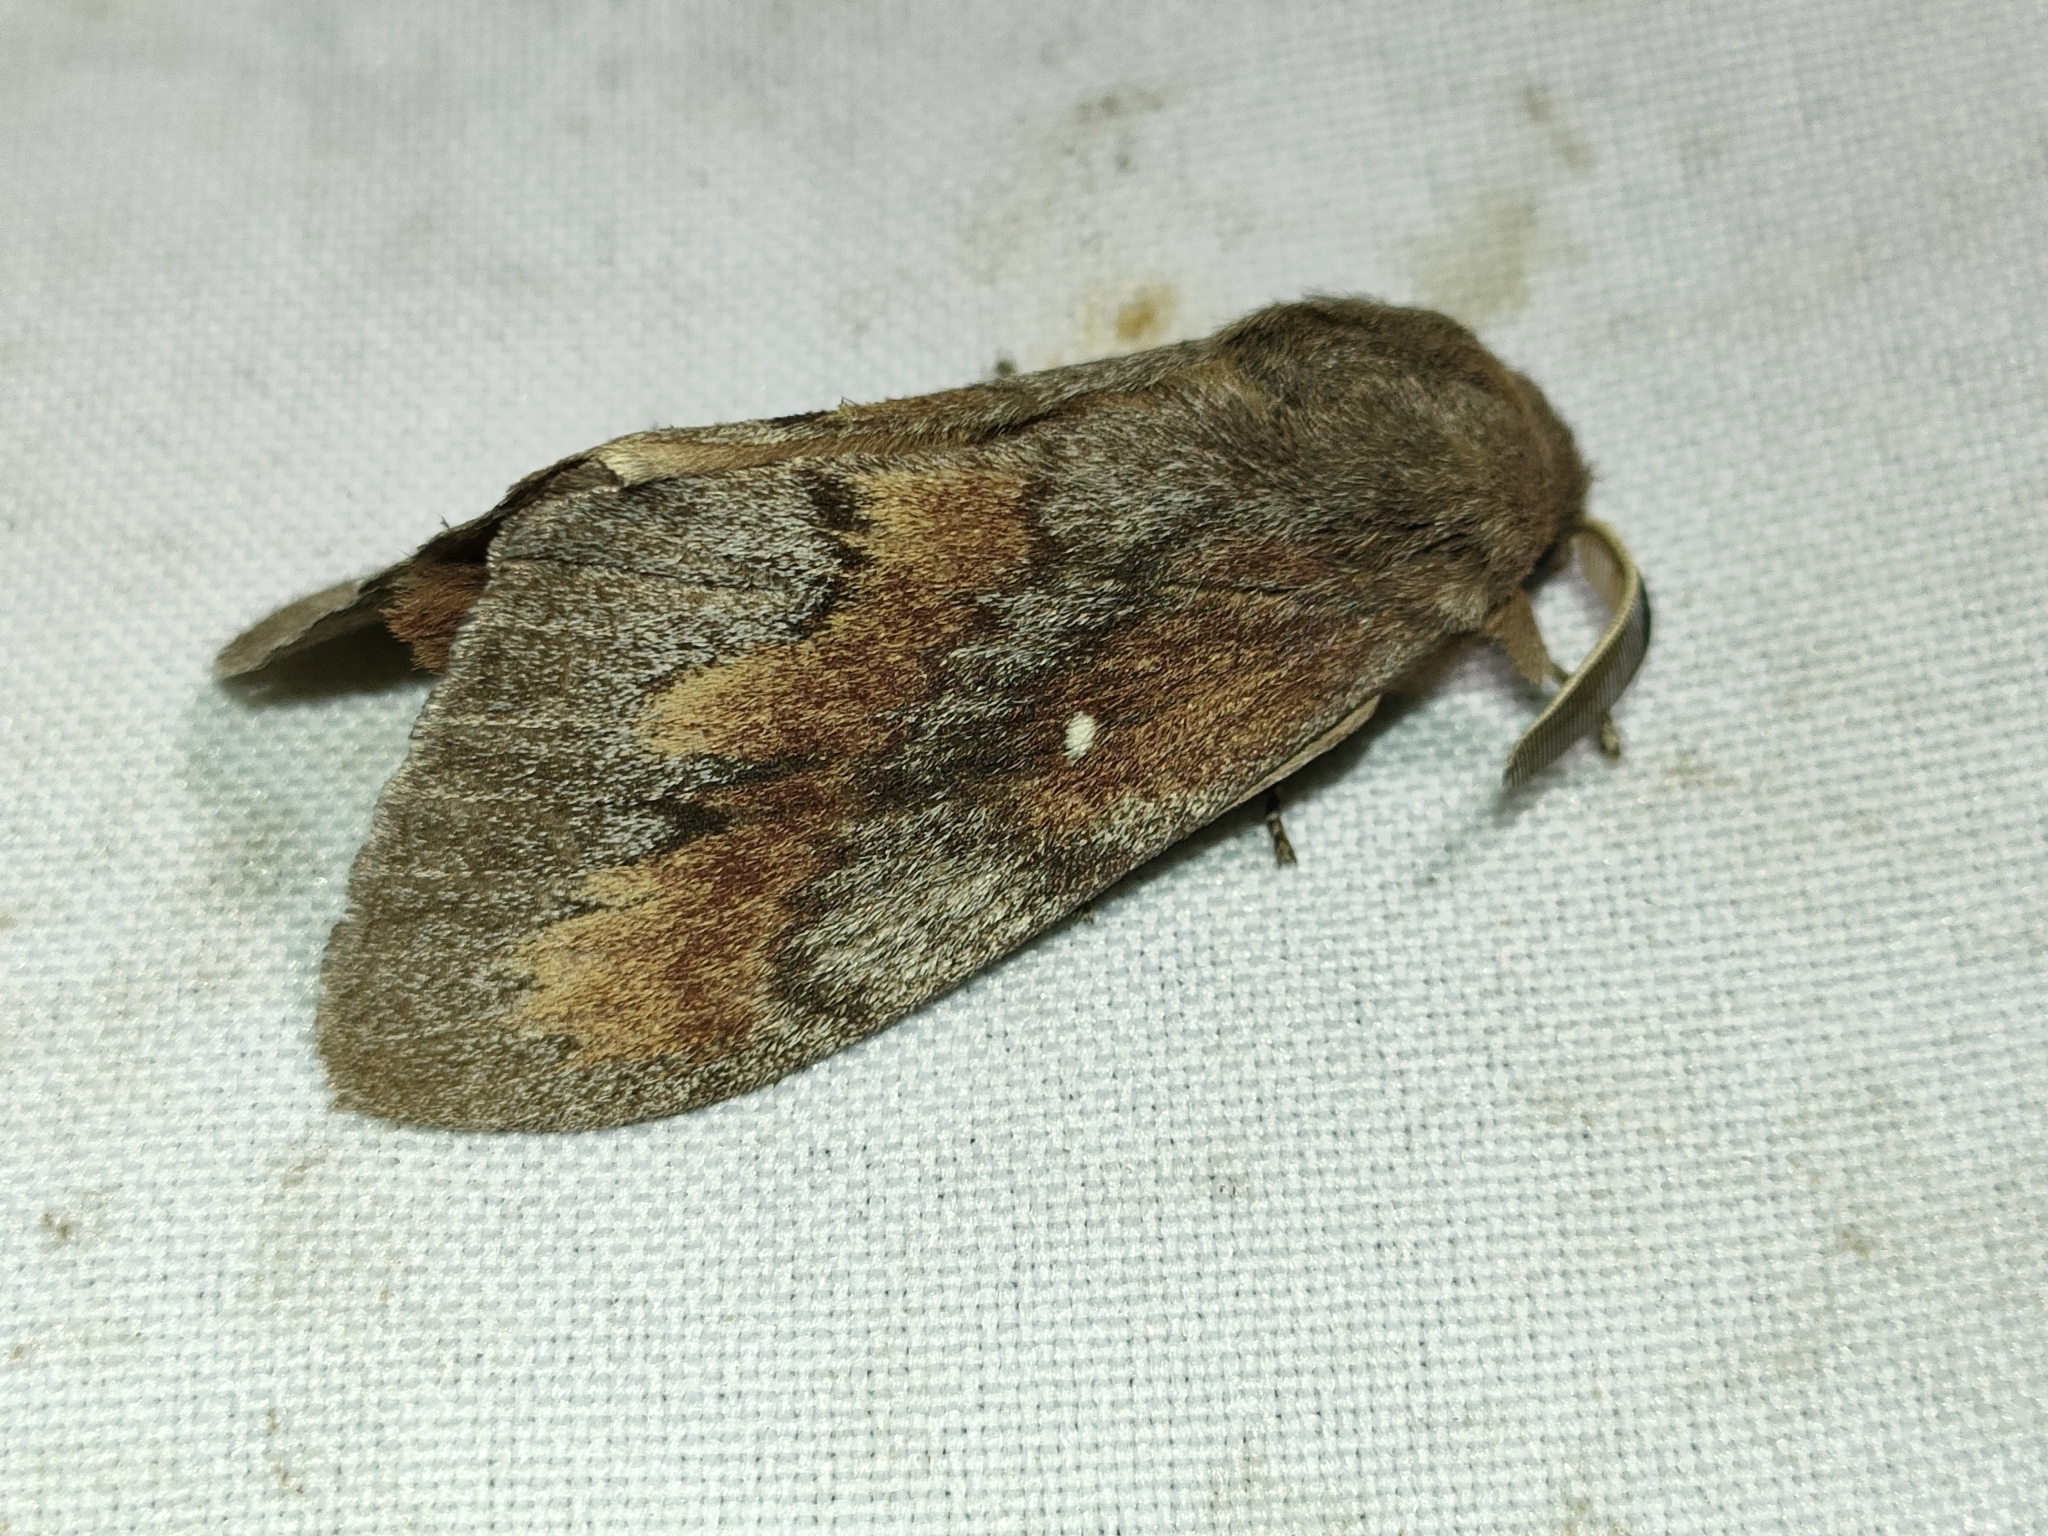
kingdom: Animalia
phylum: Arthropoda
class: Insecta
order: Lepidoptera
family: Lasiocampidae
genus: Dendrolimus
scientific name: Dendrolimus pini
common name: Pine-tree lappet
